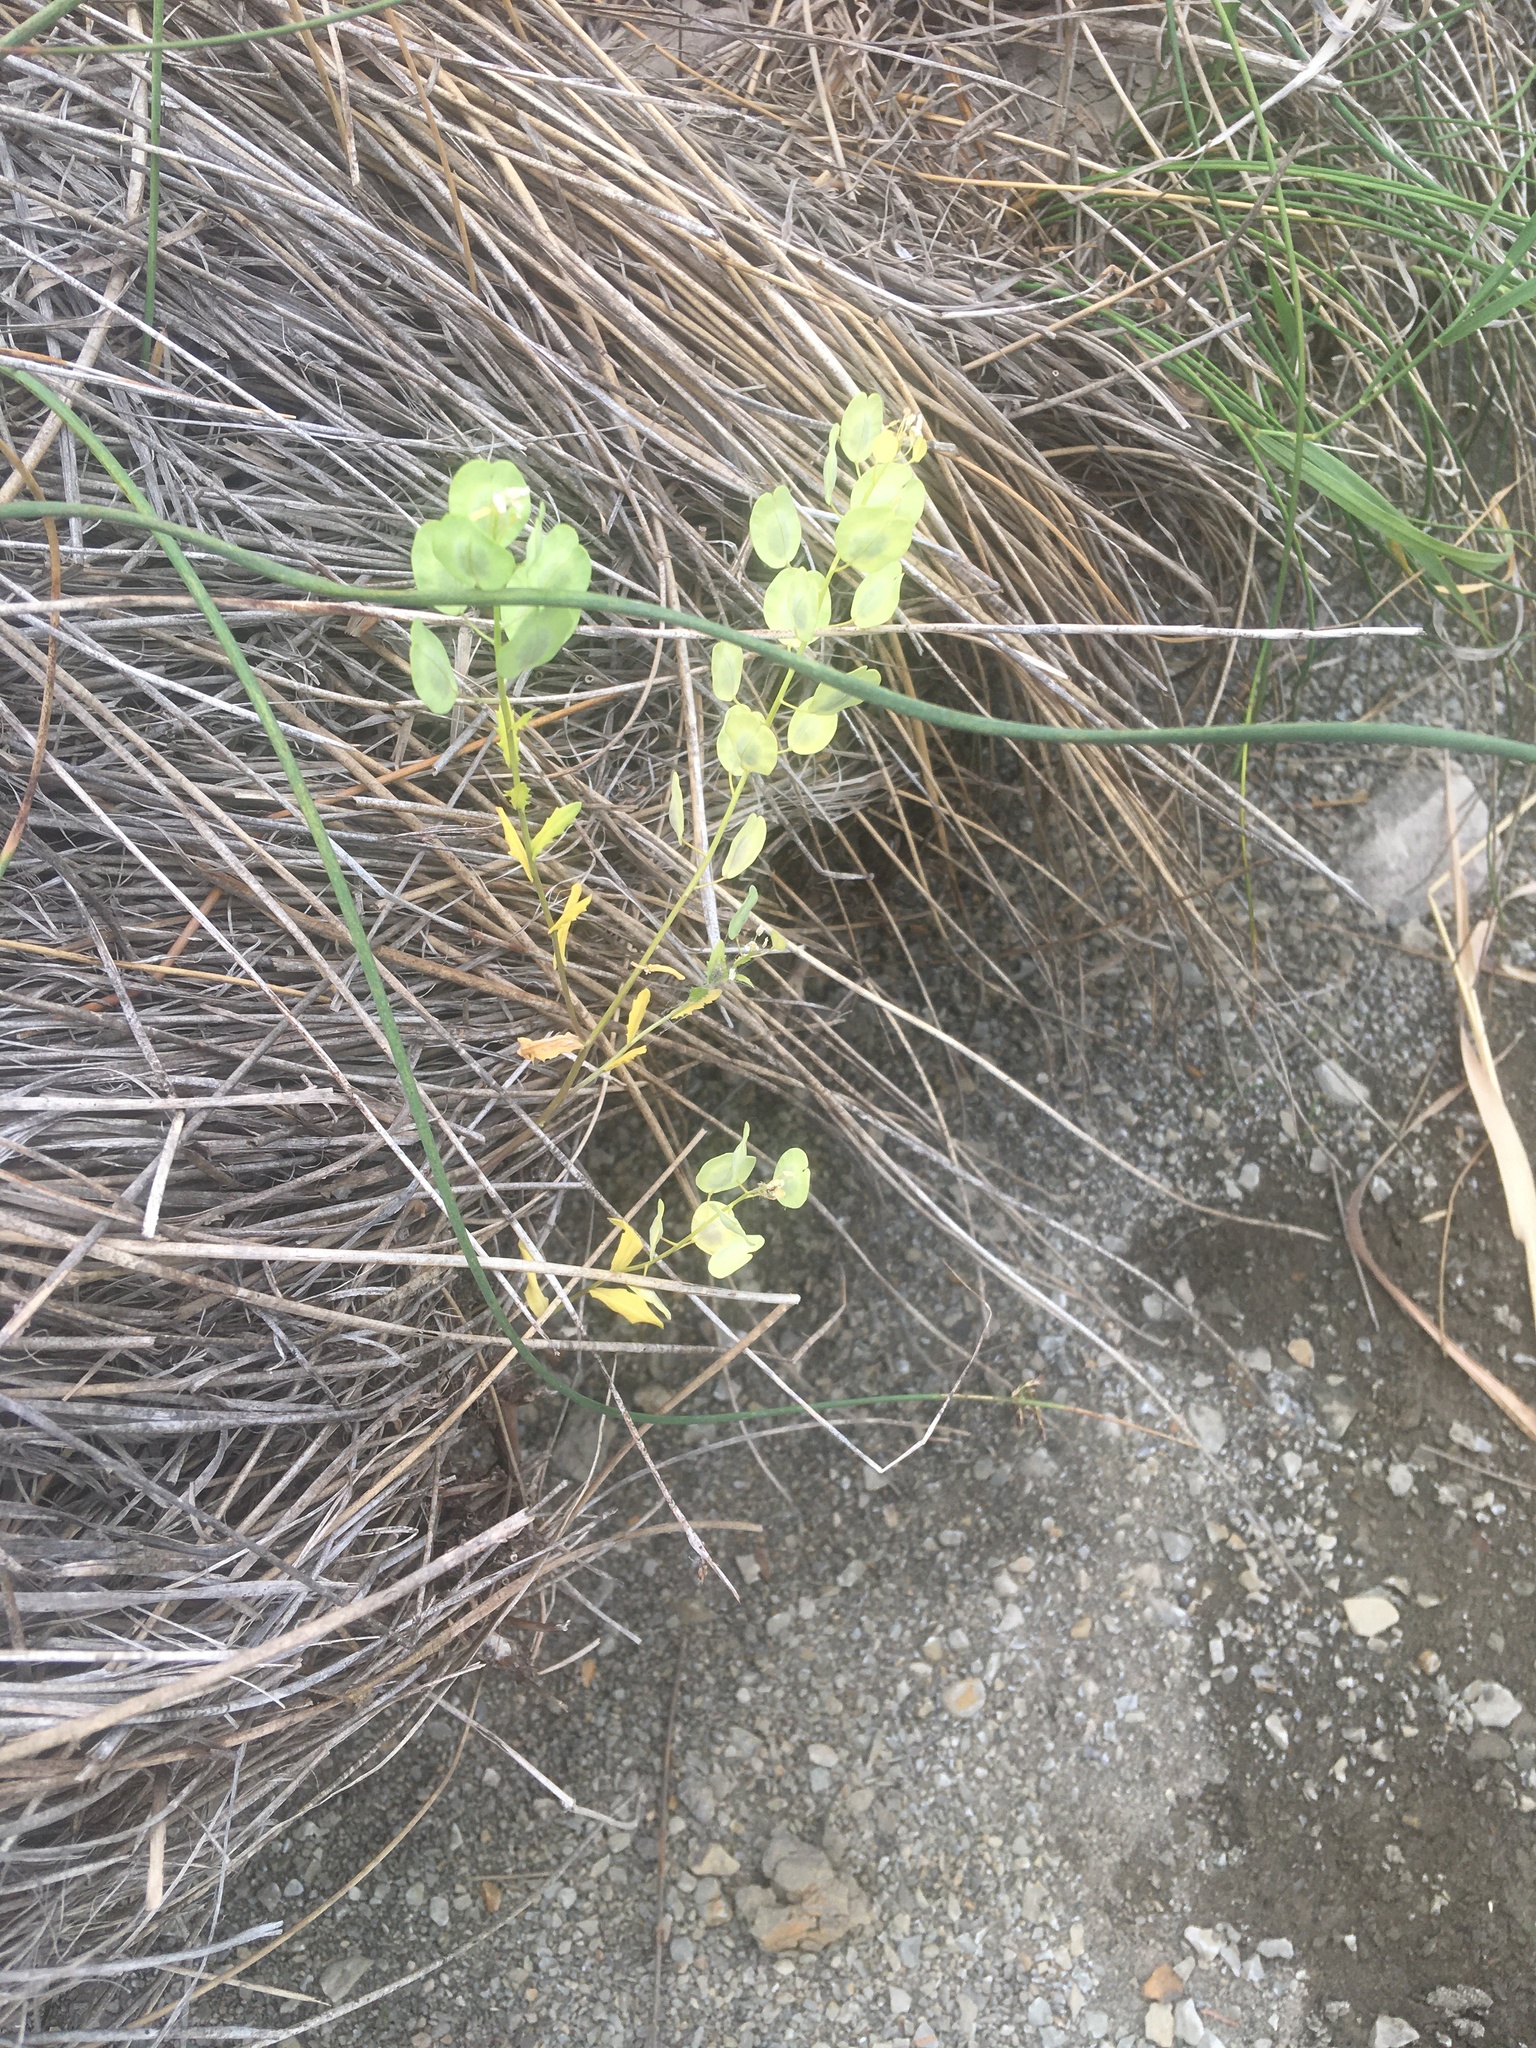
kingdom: Plantae
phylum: Tracheophyta
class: Magnoliopsida
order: Brassicales
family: Brassicaceae
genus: Thlaspi
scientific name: Thlaspi arvense
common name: Field pennycress
